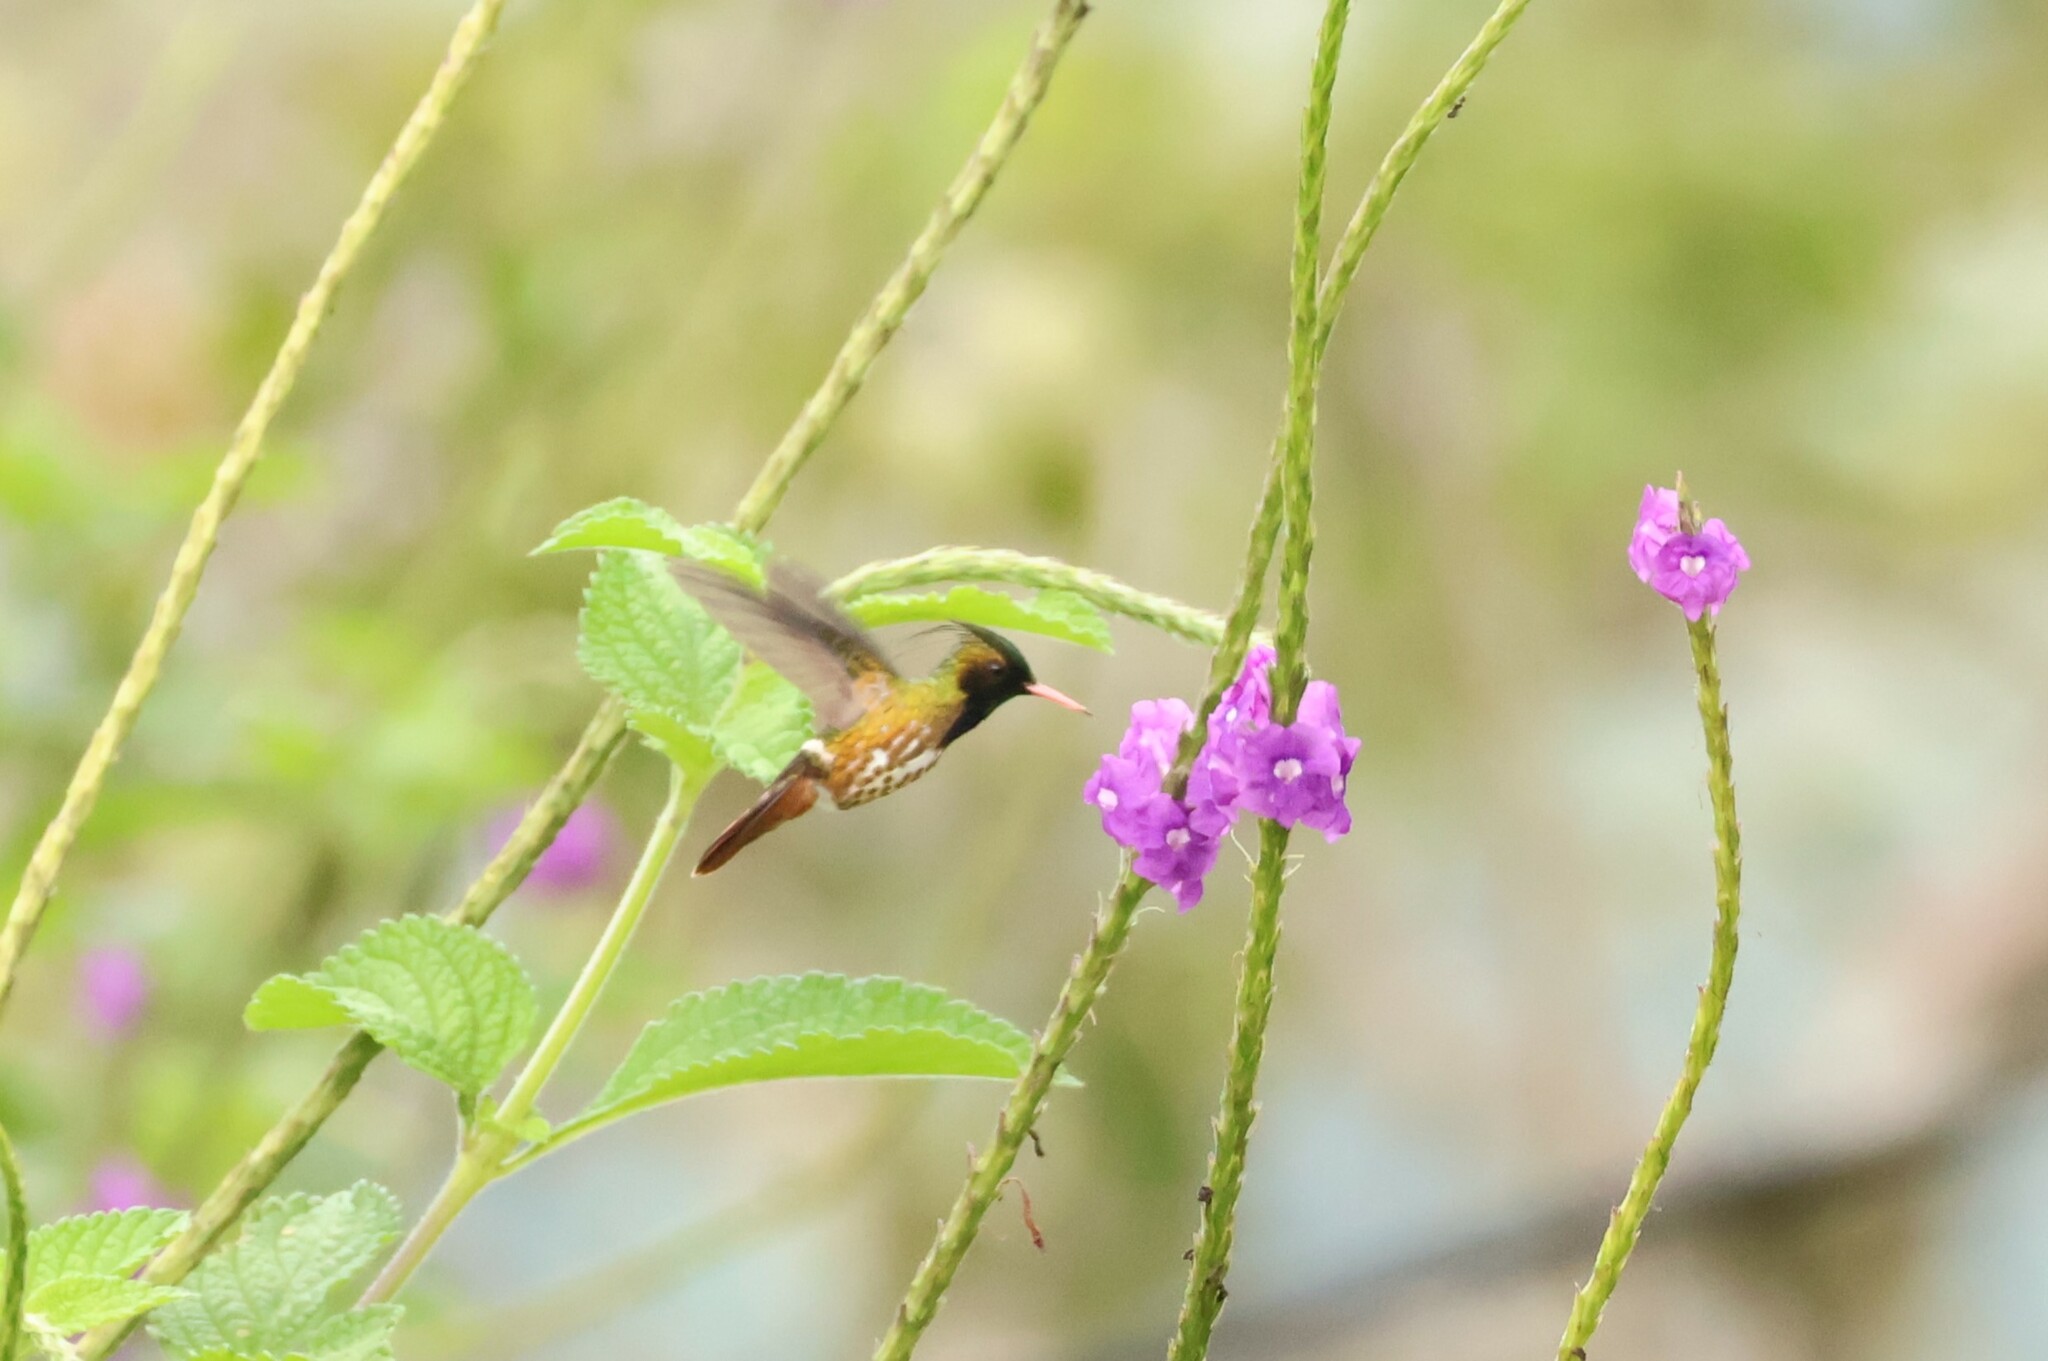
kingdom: Animalia
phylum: Chordata
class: Aves
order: Apodiformes
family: Trochilidae
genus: Lophornis
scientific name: Lophornis helenae
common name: Black-crested coquette
